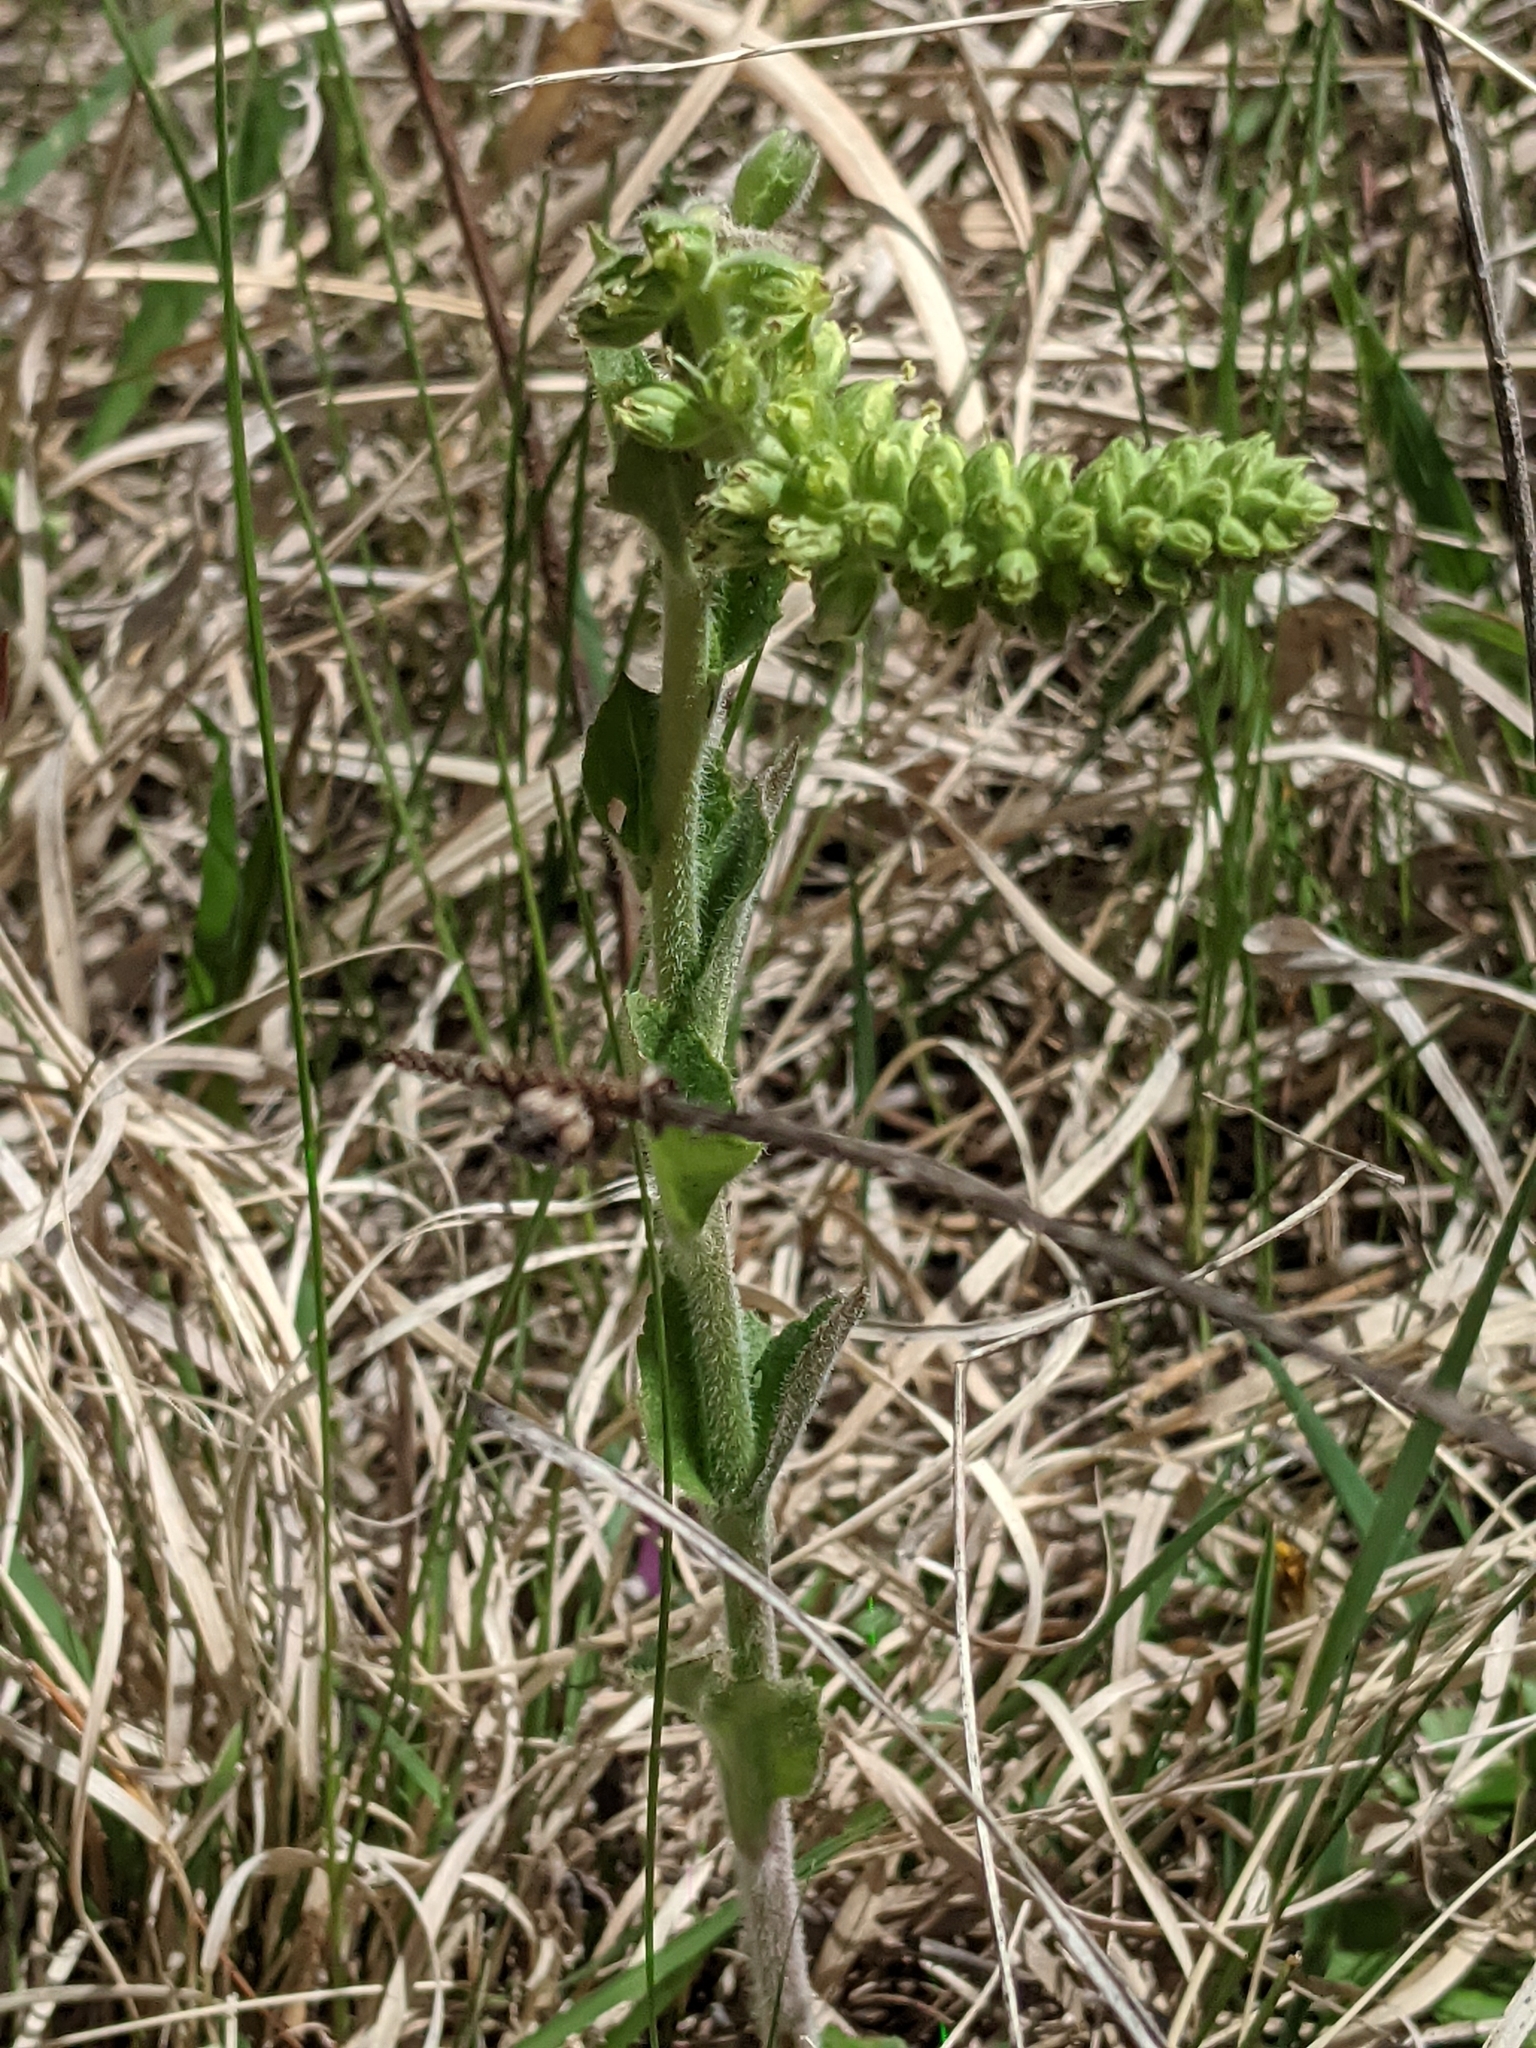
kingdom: Plantae
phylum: Tracheophyta
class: Magnoliopsida
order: Lamiales
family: Plantaginaceae
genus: Synthyris
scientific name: Synthyris bullii
